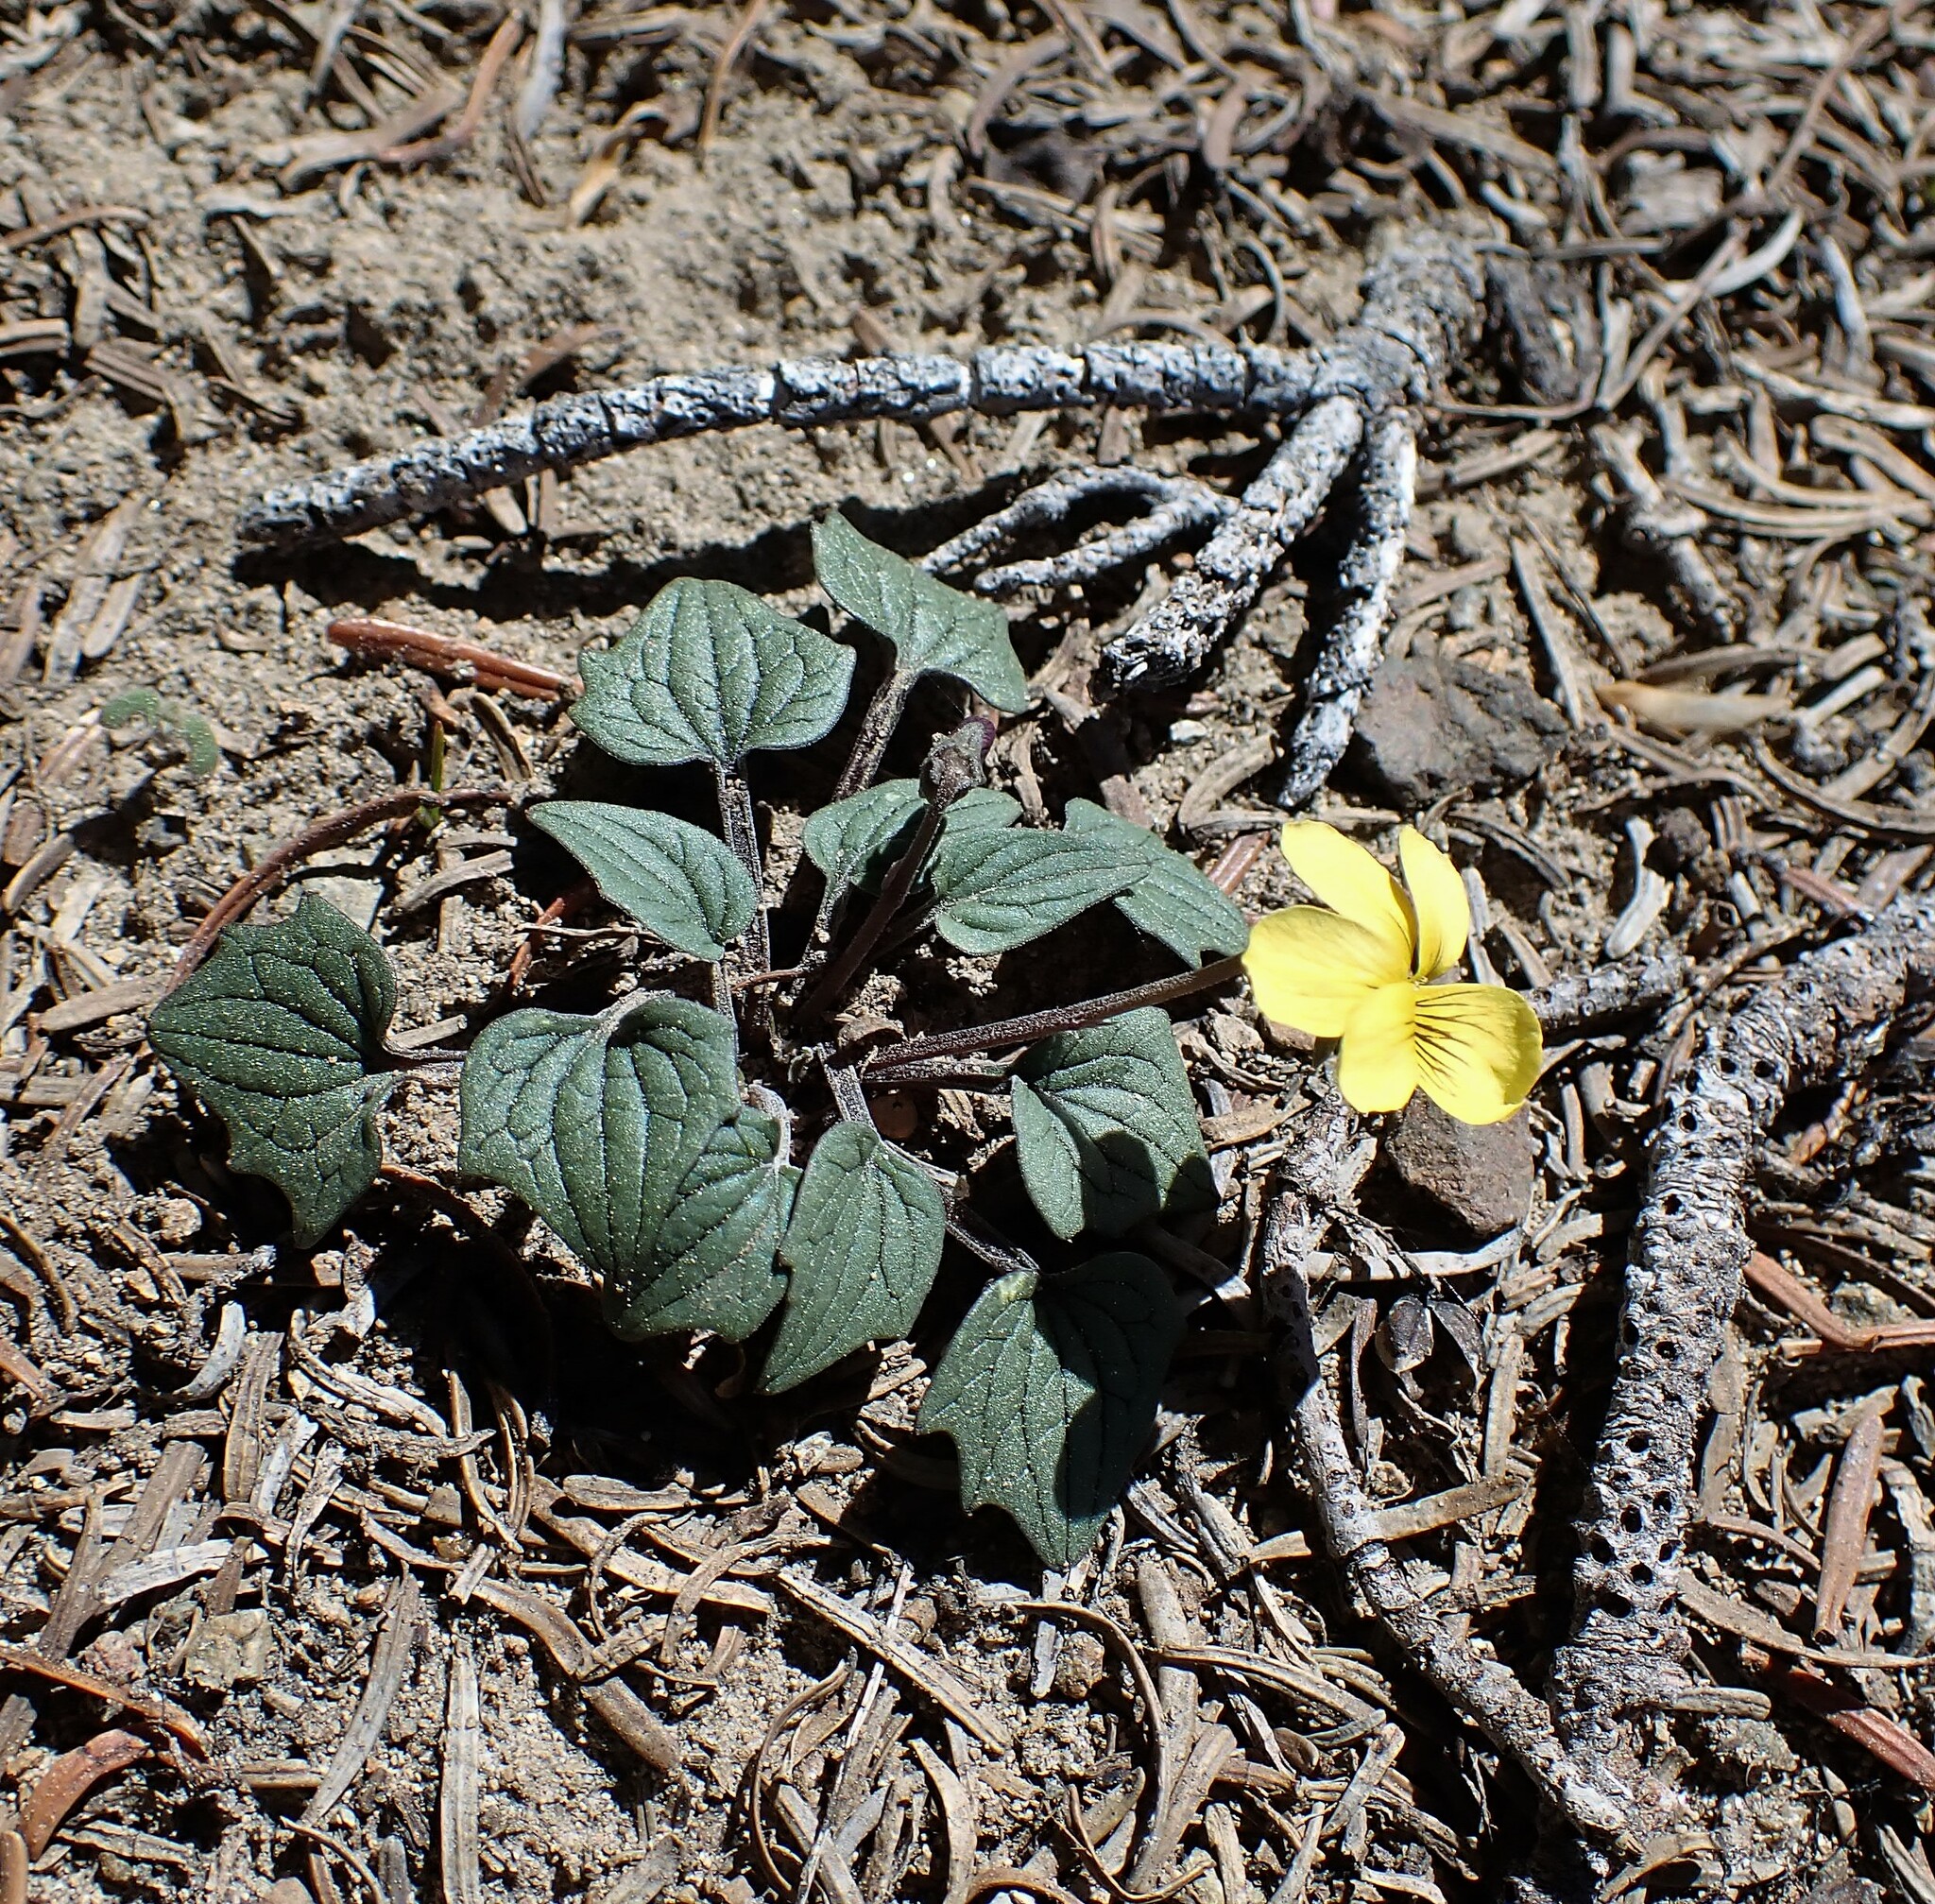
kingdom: Plantae
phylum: Tracheophyta
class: Magnoliopsida
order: Malpighiales
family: Violaceae
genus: Viola
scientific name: Viola purpurea
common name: Pine violet
